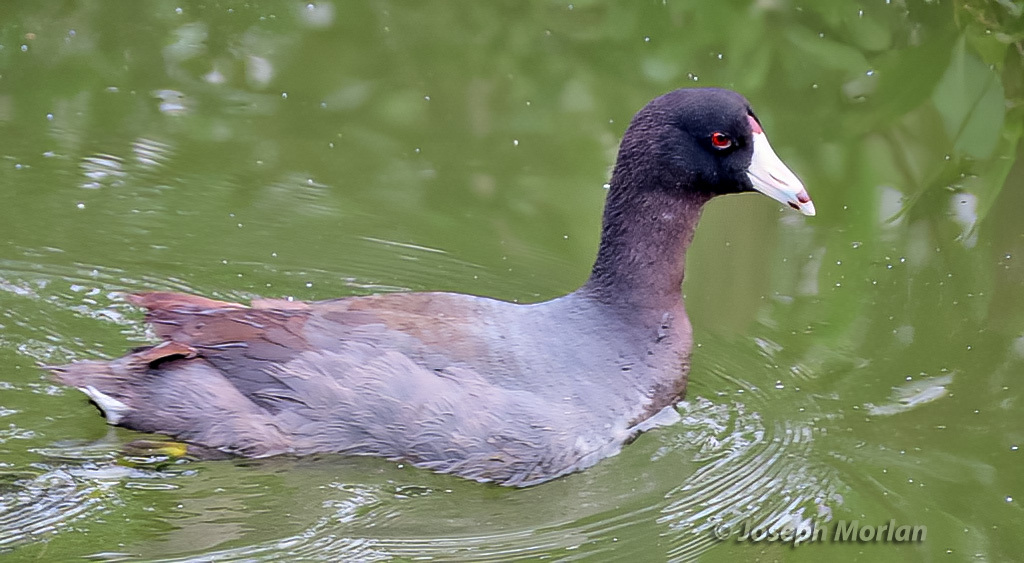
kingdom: Animalia
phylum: Chordata
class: Aves
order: Gruiformes
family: Rallidae
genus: Fulica
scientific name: Fulica americana
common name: American coot
